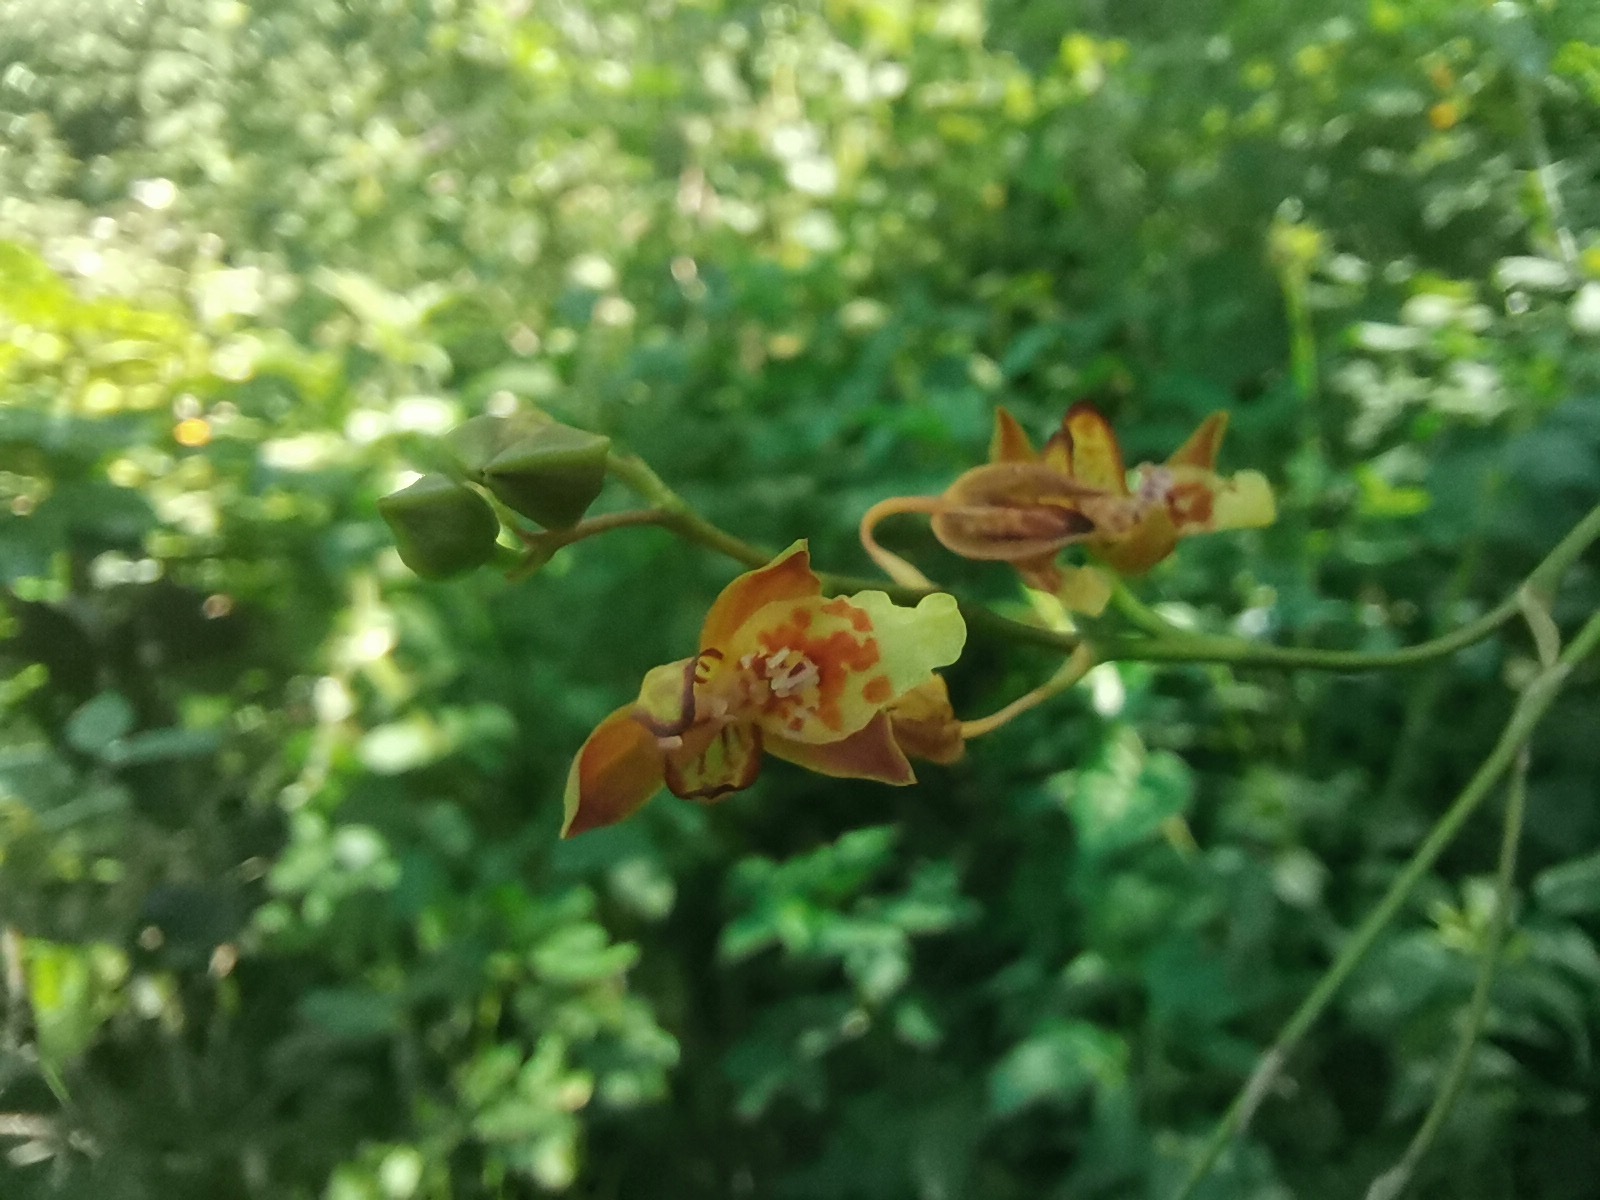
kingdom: Plantae
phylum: Tracheophyta
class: Liliopsida
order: Asparagales
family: Orchidaceae
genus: Leochilus
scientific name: Leochilus carinatus
